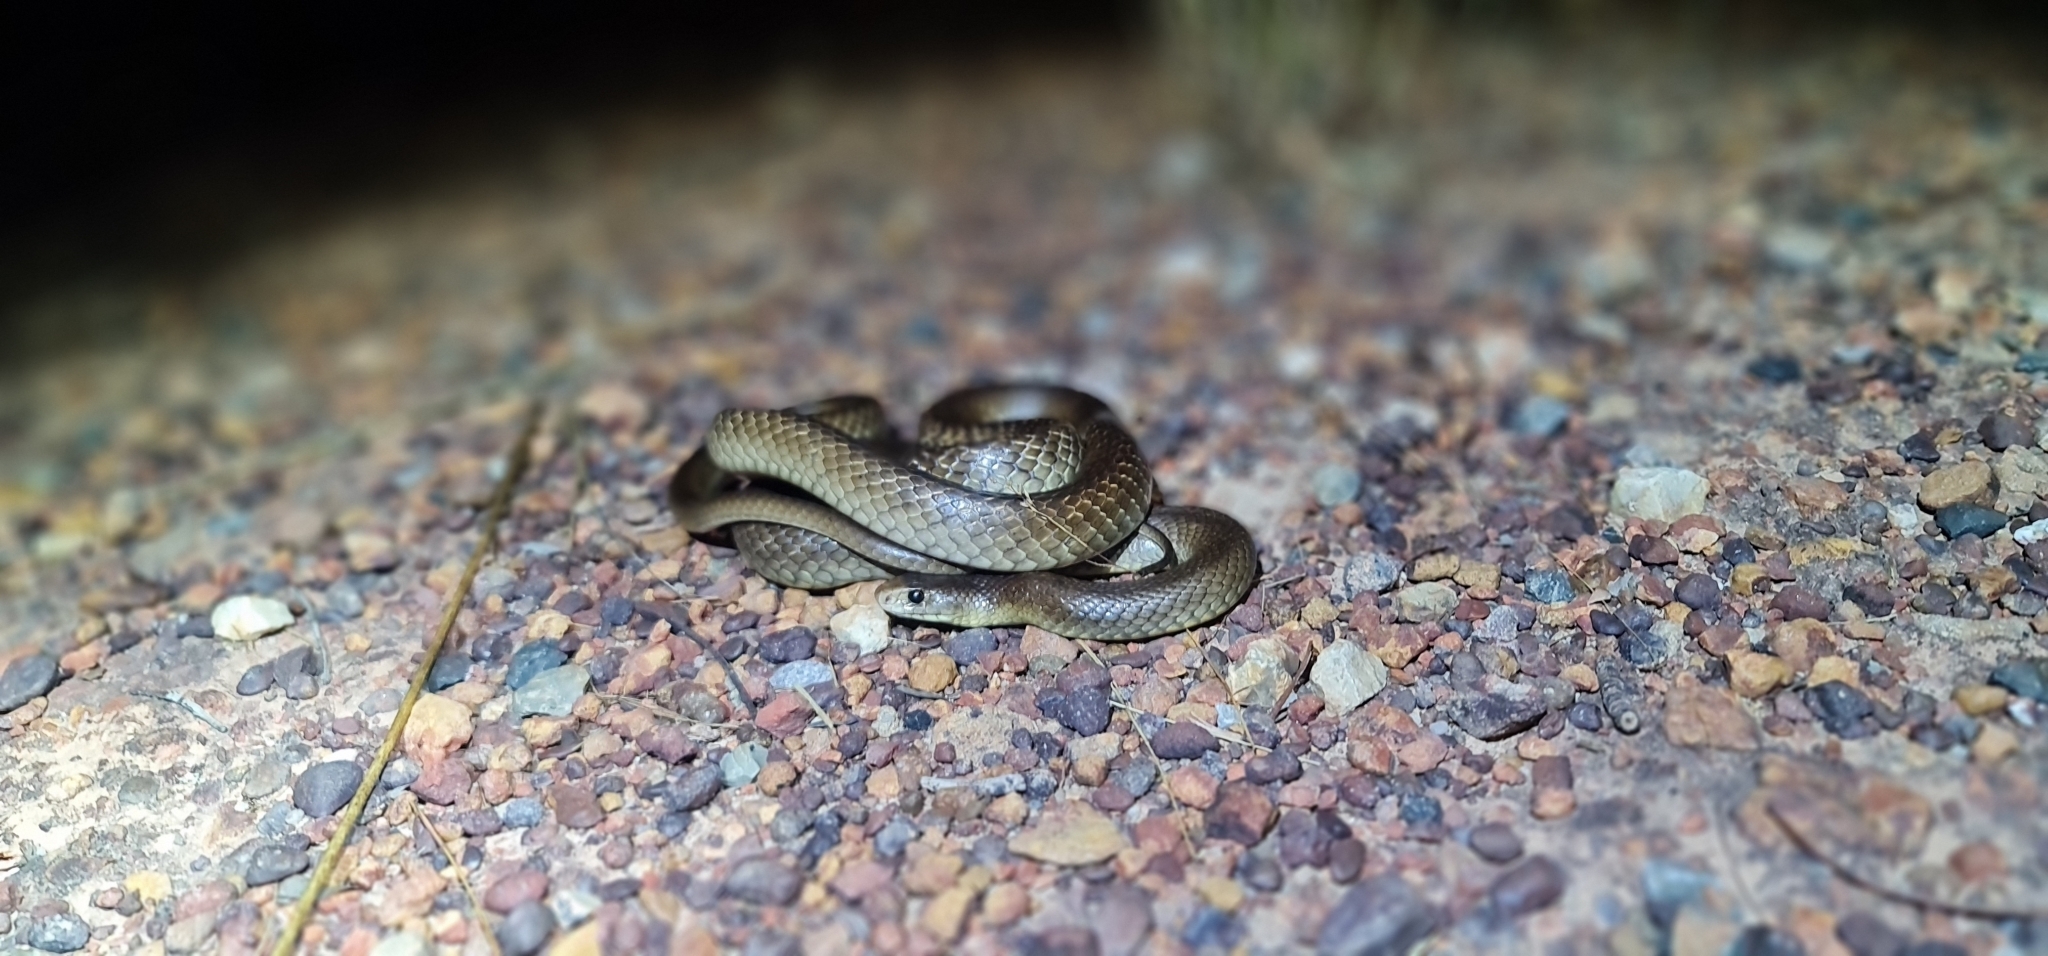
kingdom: Animalia
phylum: Chordata
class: Squamata
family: Elapidae
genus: Pseudonaja
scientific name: Pseudonaja nuchalis
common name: Gwardar
